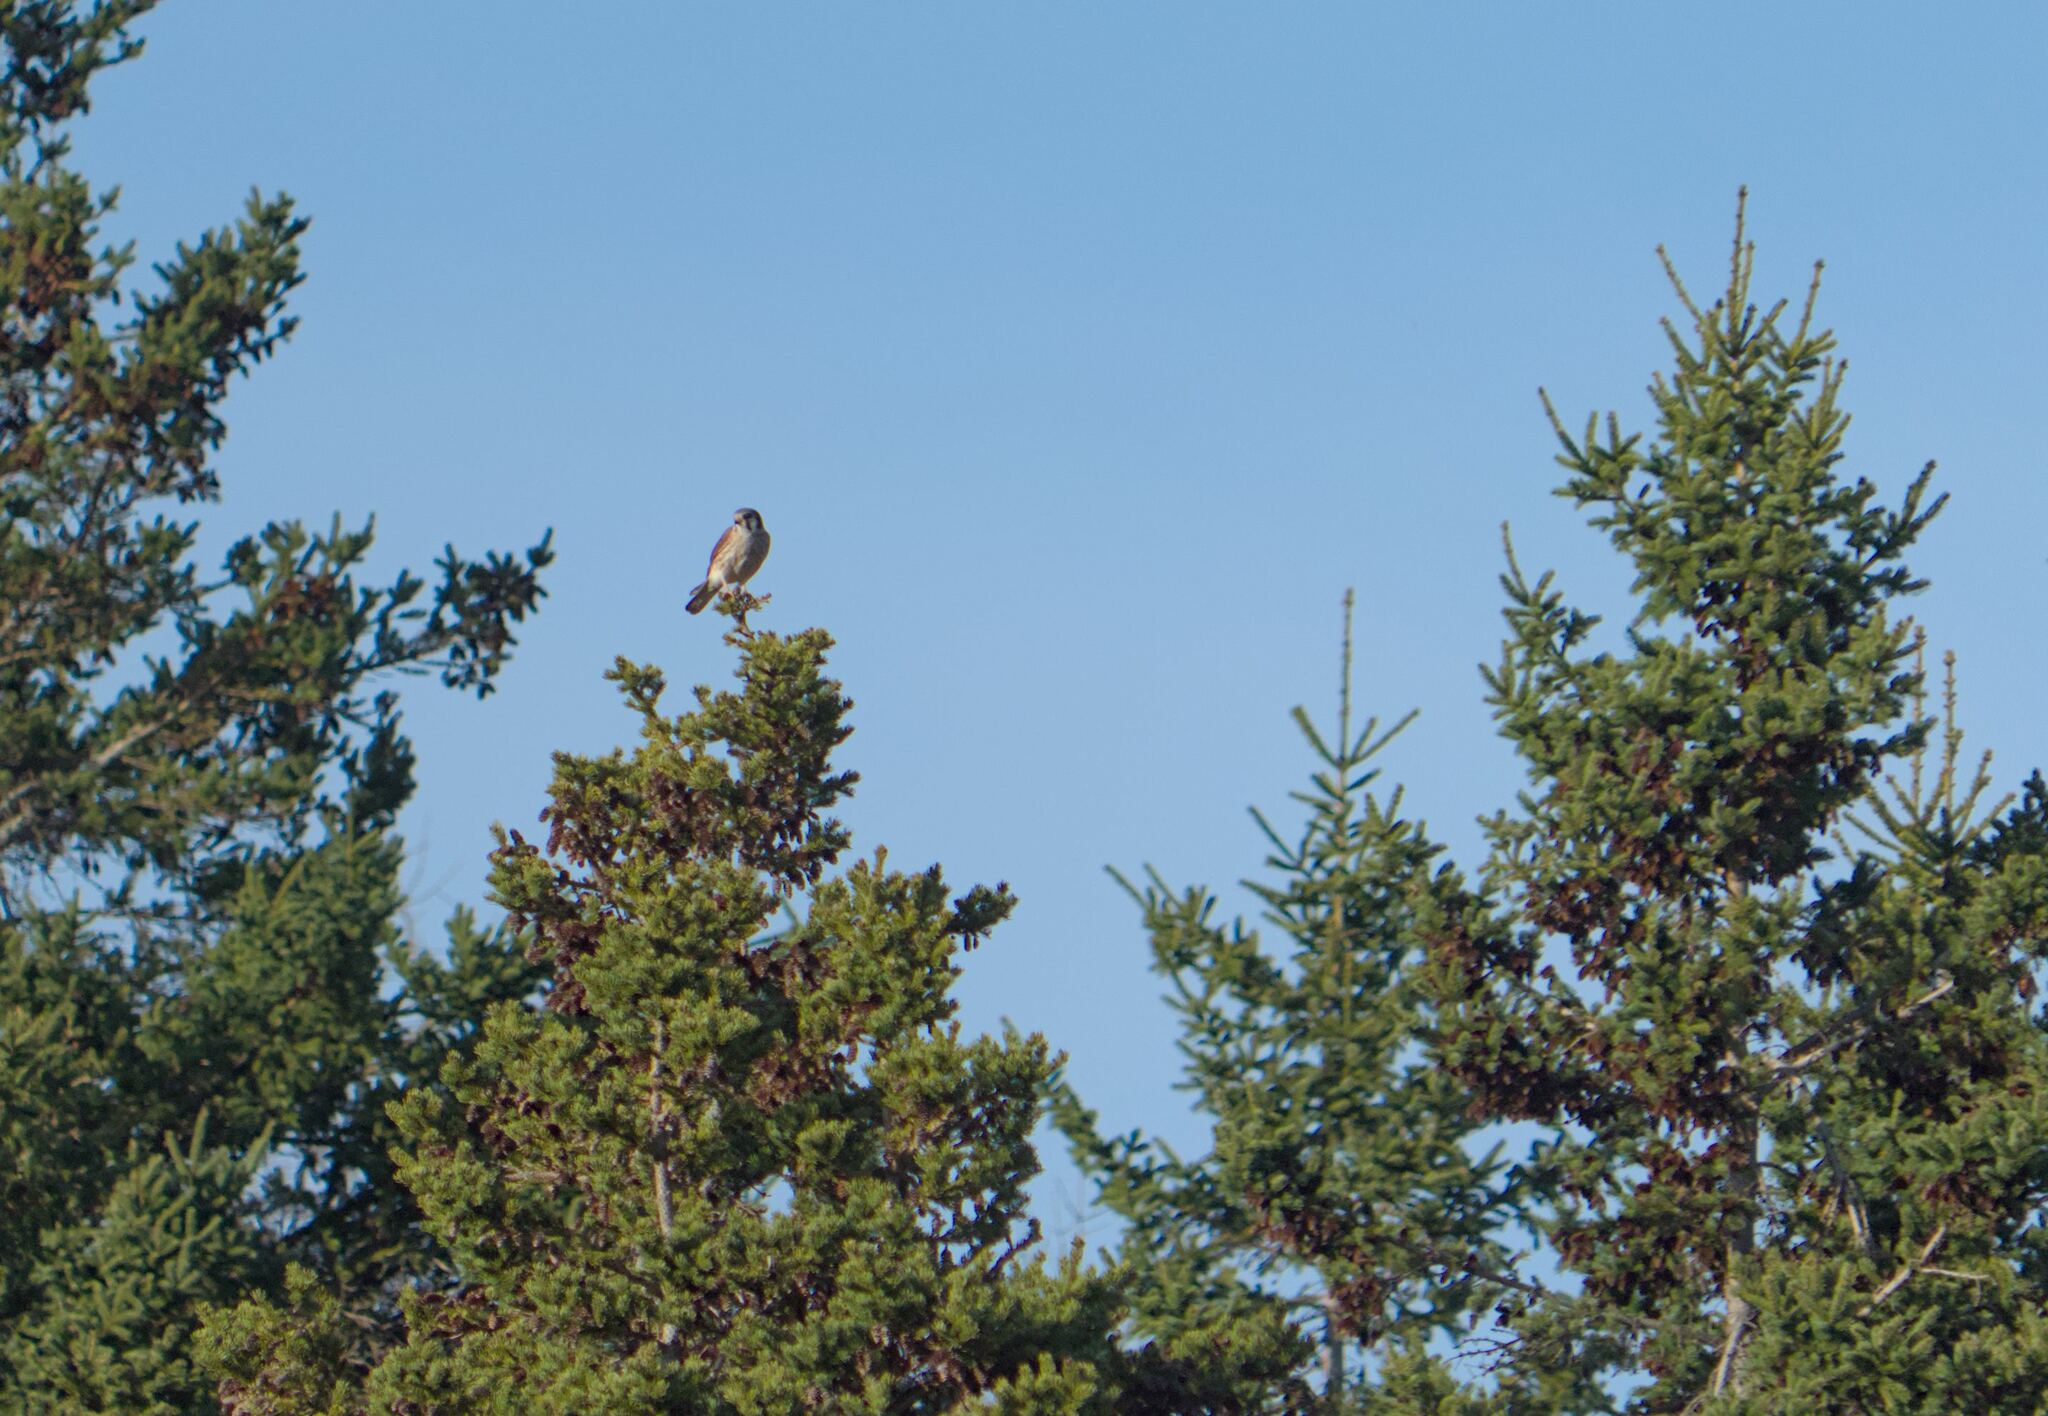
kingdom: Animalia
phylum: Chordata
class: Aves
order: Falconiformes
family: Falconidae
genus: Falco
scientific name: Falco sparverius
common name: American kestrel
